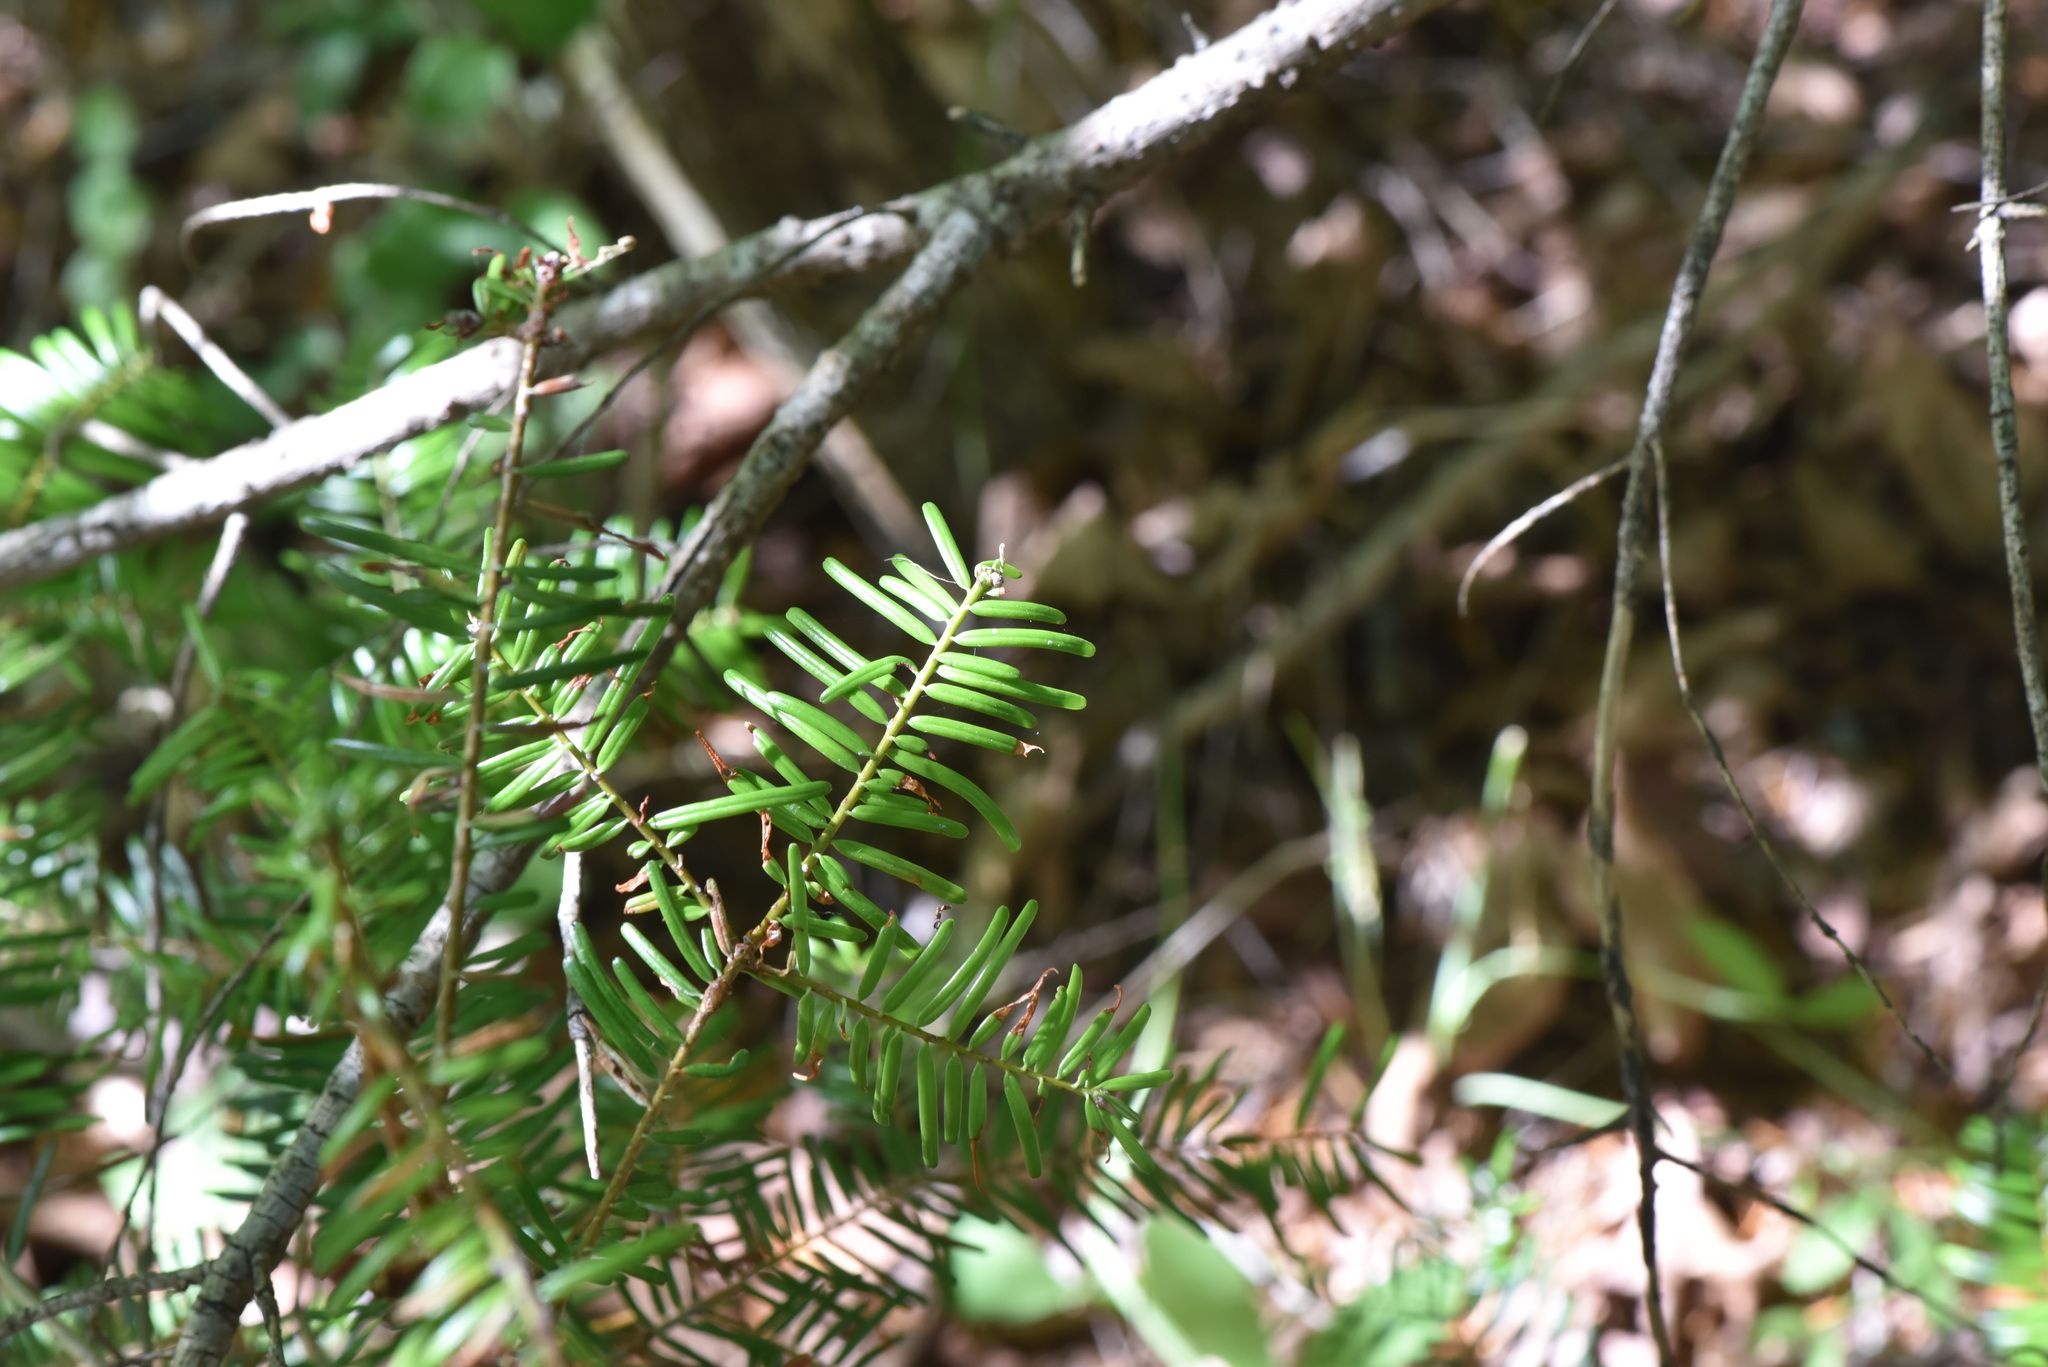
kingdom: Plantae
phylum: Tracheophyta
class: Pinopsida
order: Pinales
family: Pinaceae
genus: Abies
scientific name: Abies grandis
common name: Giant fir
